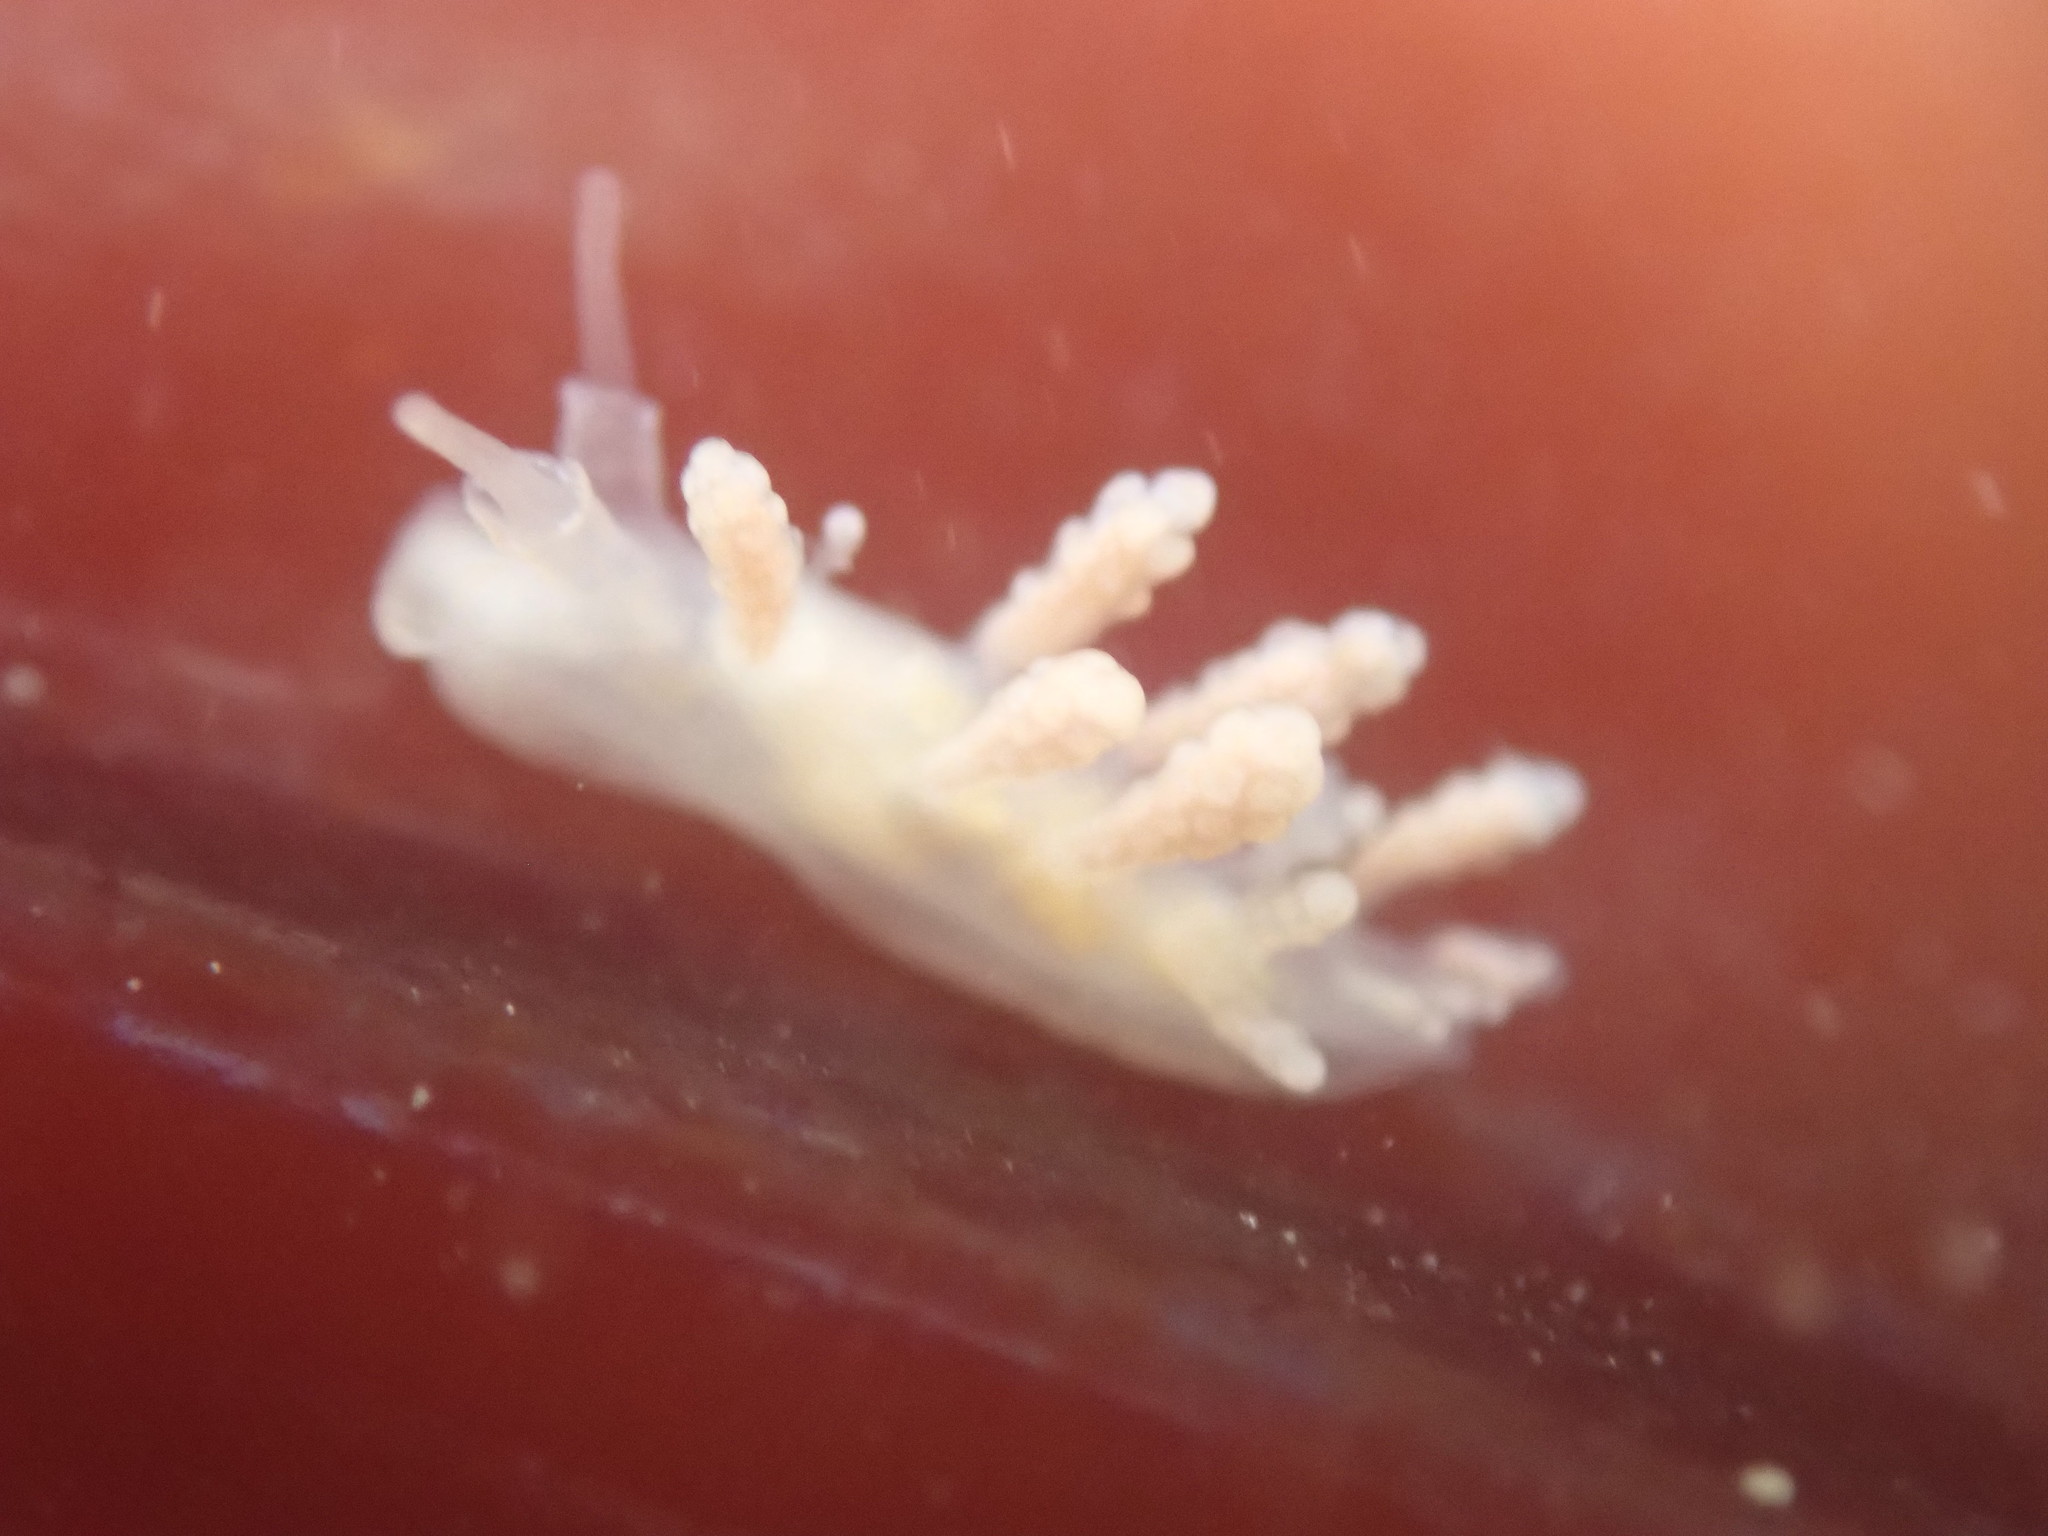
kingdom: Animalia
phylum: Mollusca
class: Gastropoda
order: Nudibranchia
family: Dotidae
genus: Doto
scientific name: Doto amyra
